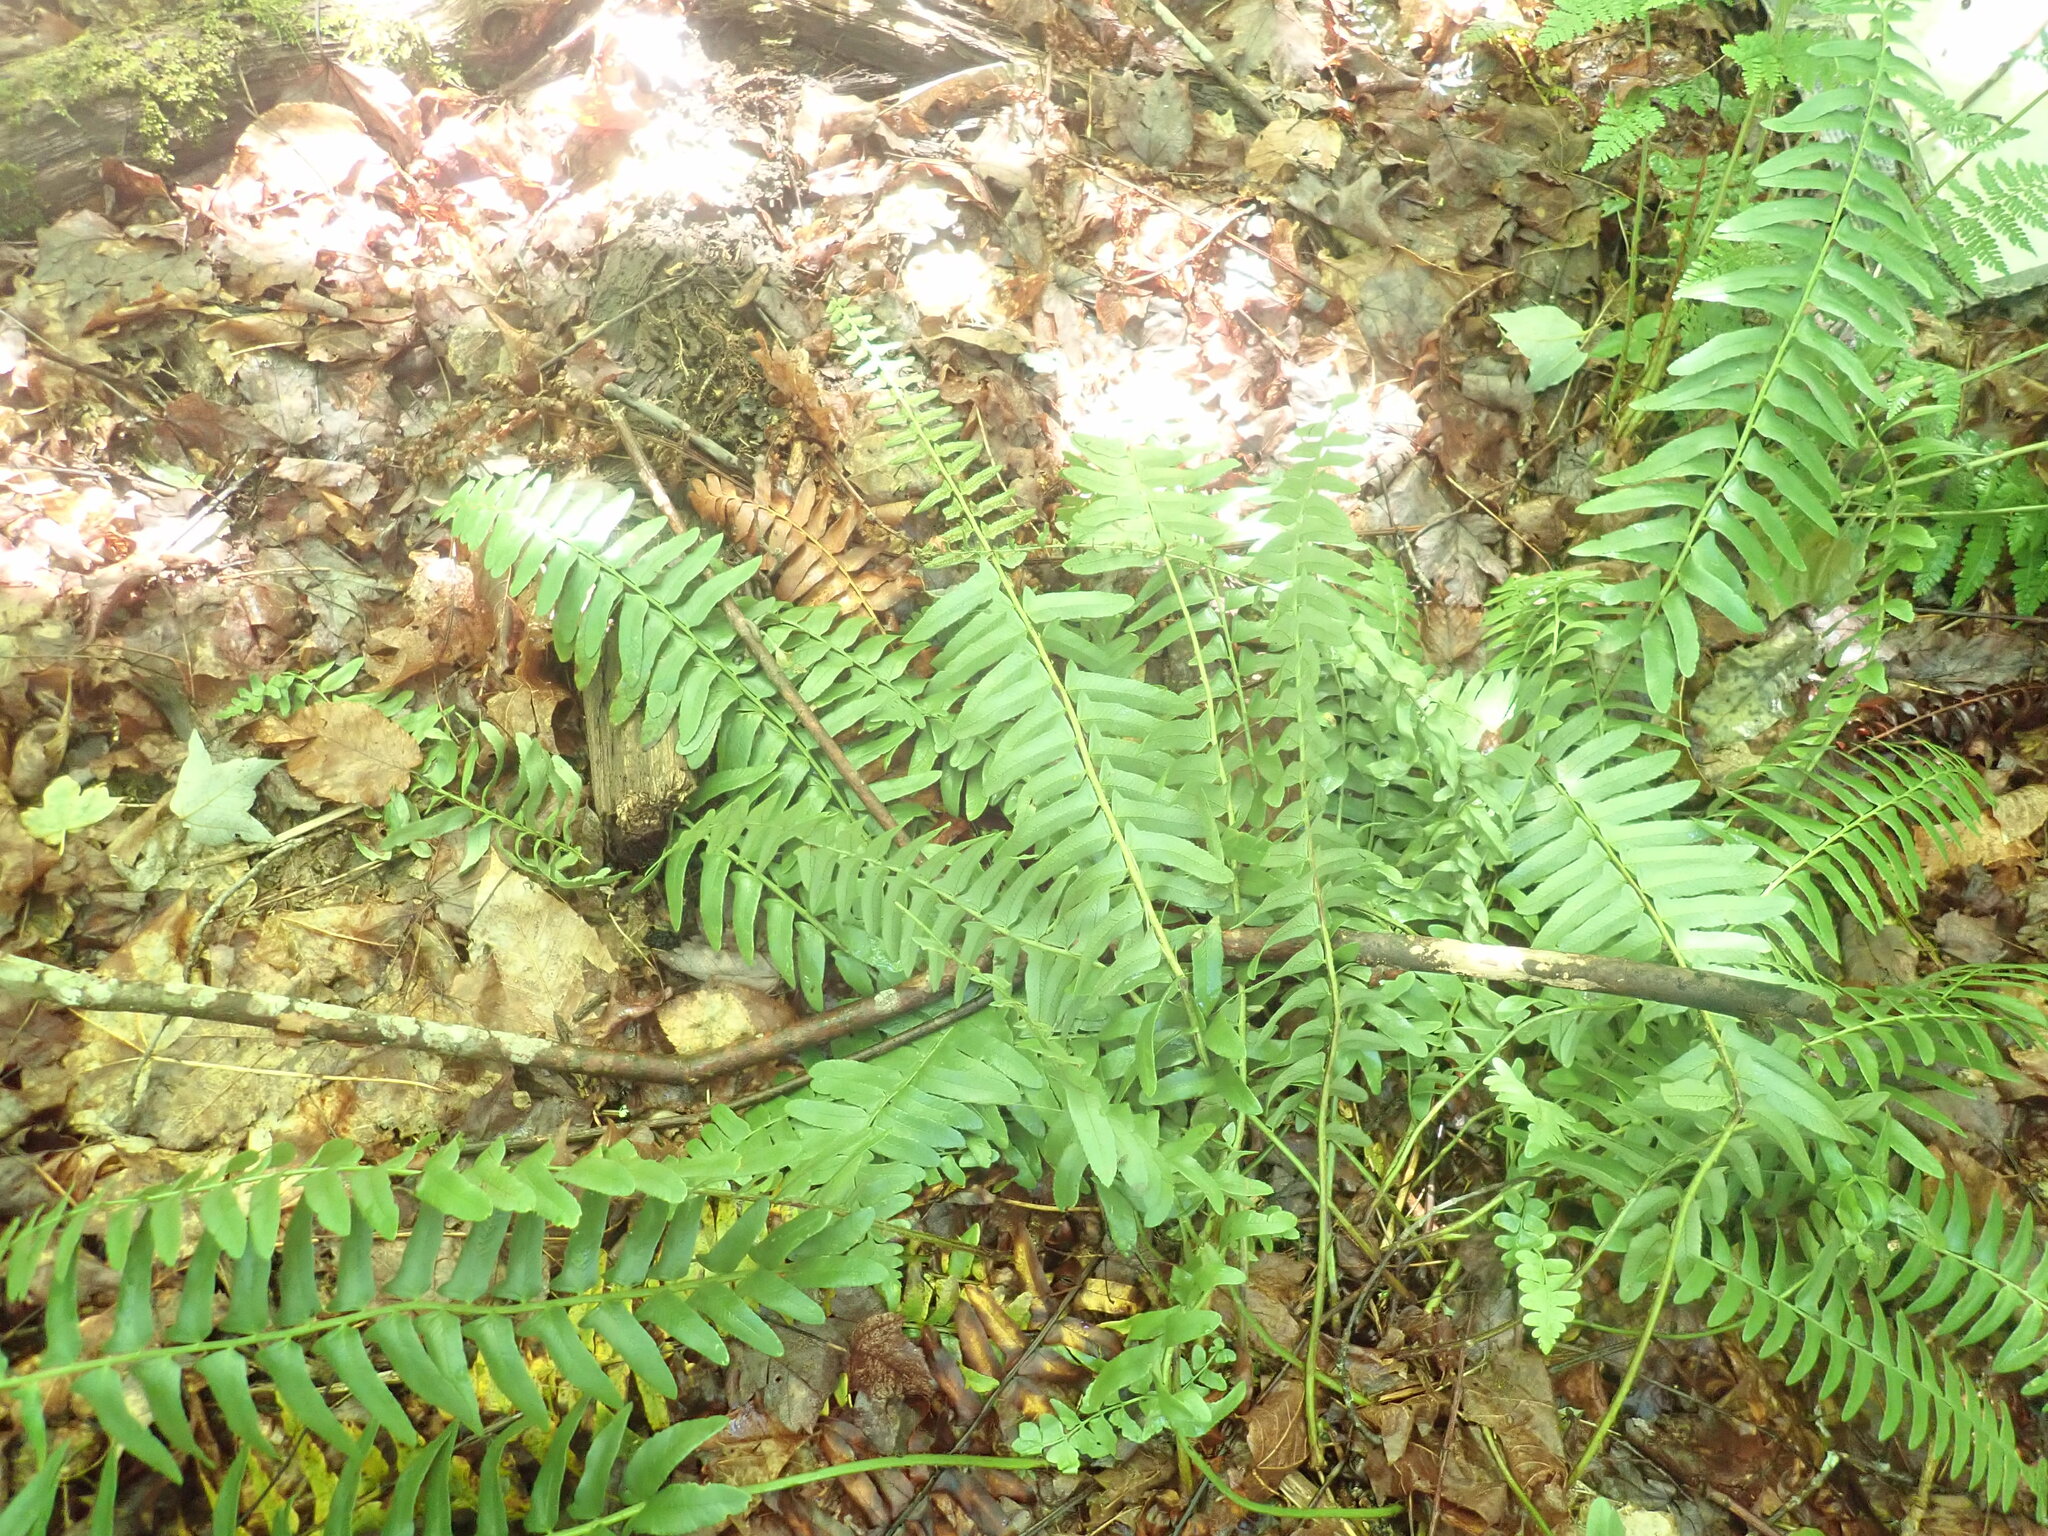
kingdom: Plantae
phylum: Tracheophyta
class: Polypodiopsida
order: Polypodiales
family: Dryopteridaceae
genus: Polystichum
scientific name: Polystichum acrostichoides
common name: Christmas fern
